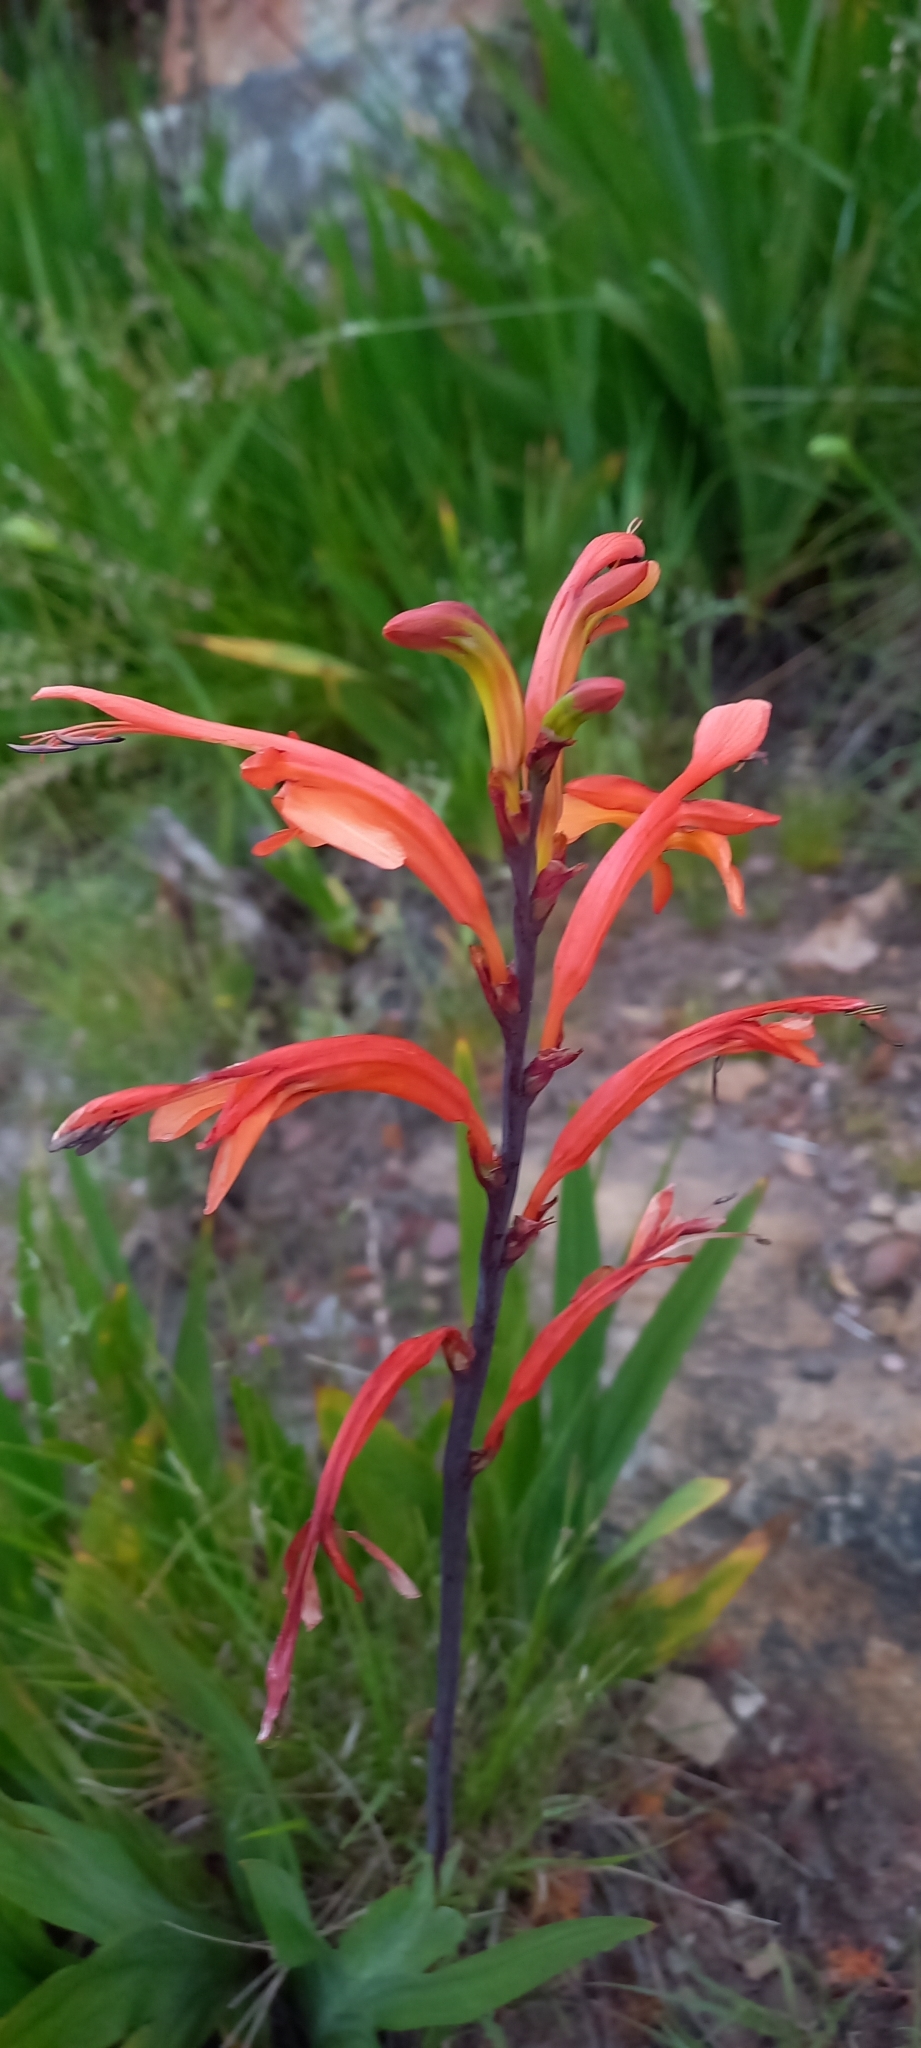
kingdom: Plantae
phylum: Tracheophyta
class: Liliopsida
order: Asparagales
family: Iridaceae
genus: Chasmanthe
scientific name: Chasmanthe floribunda
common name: African cornflag
